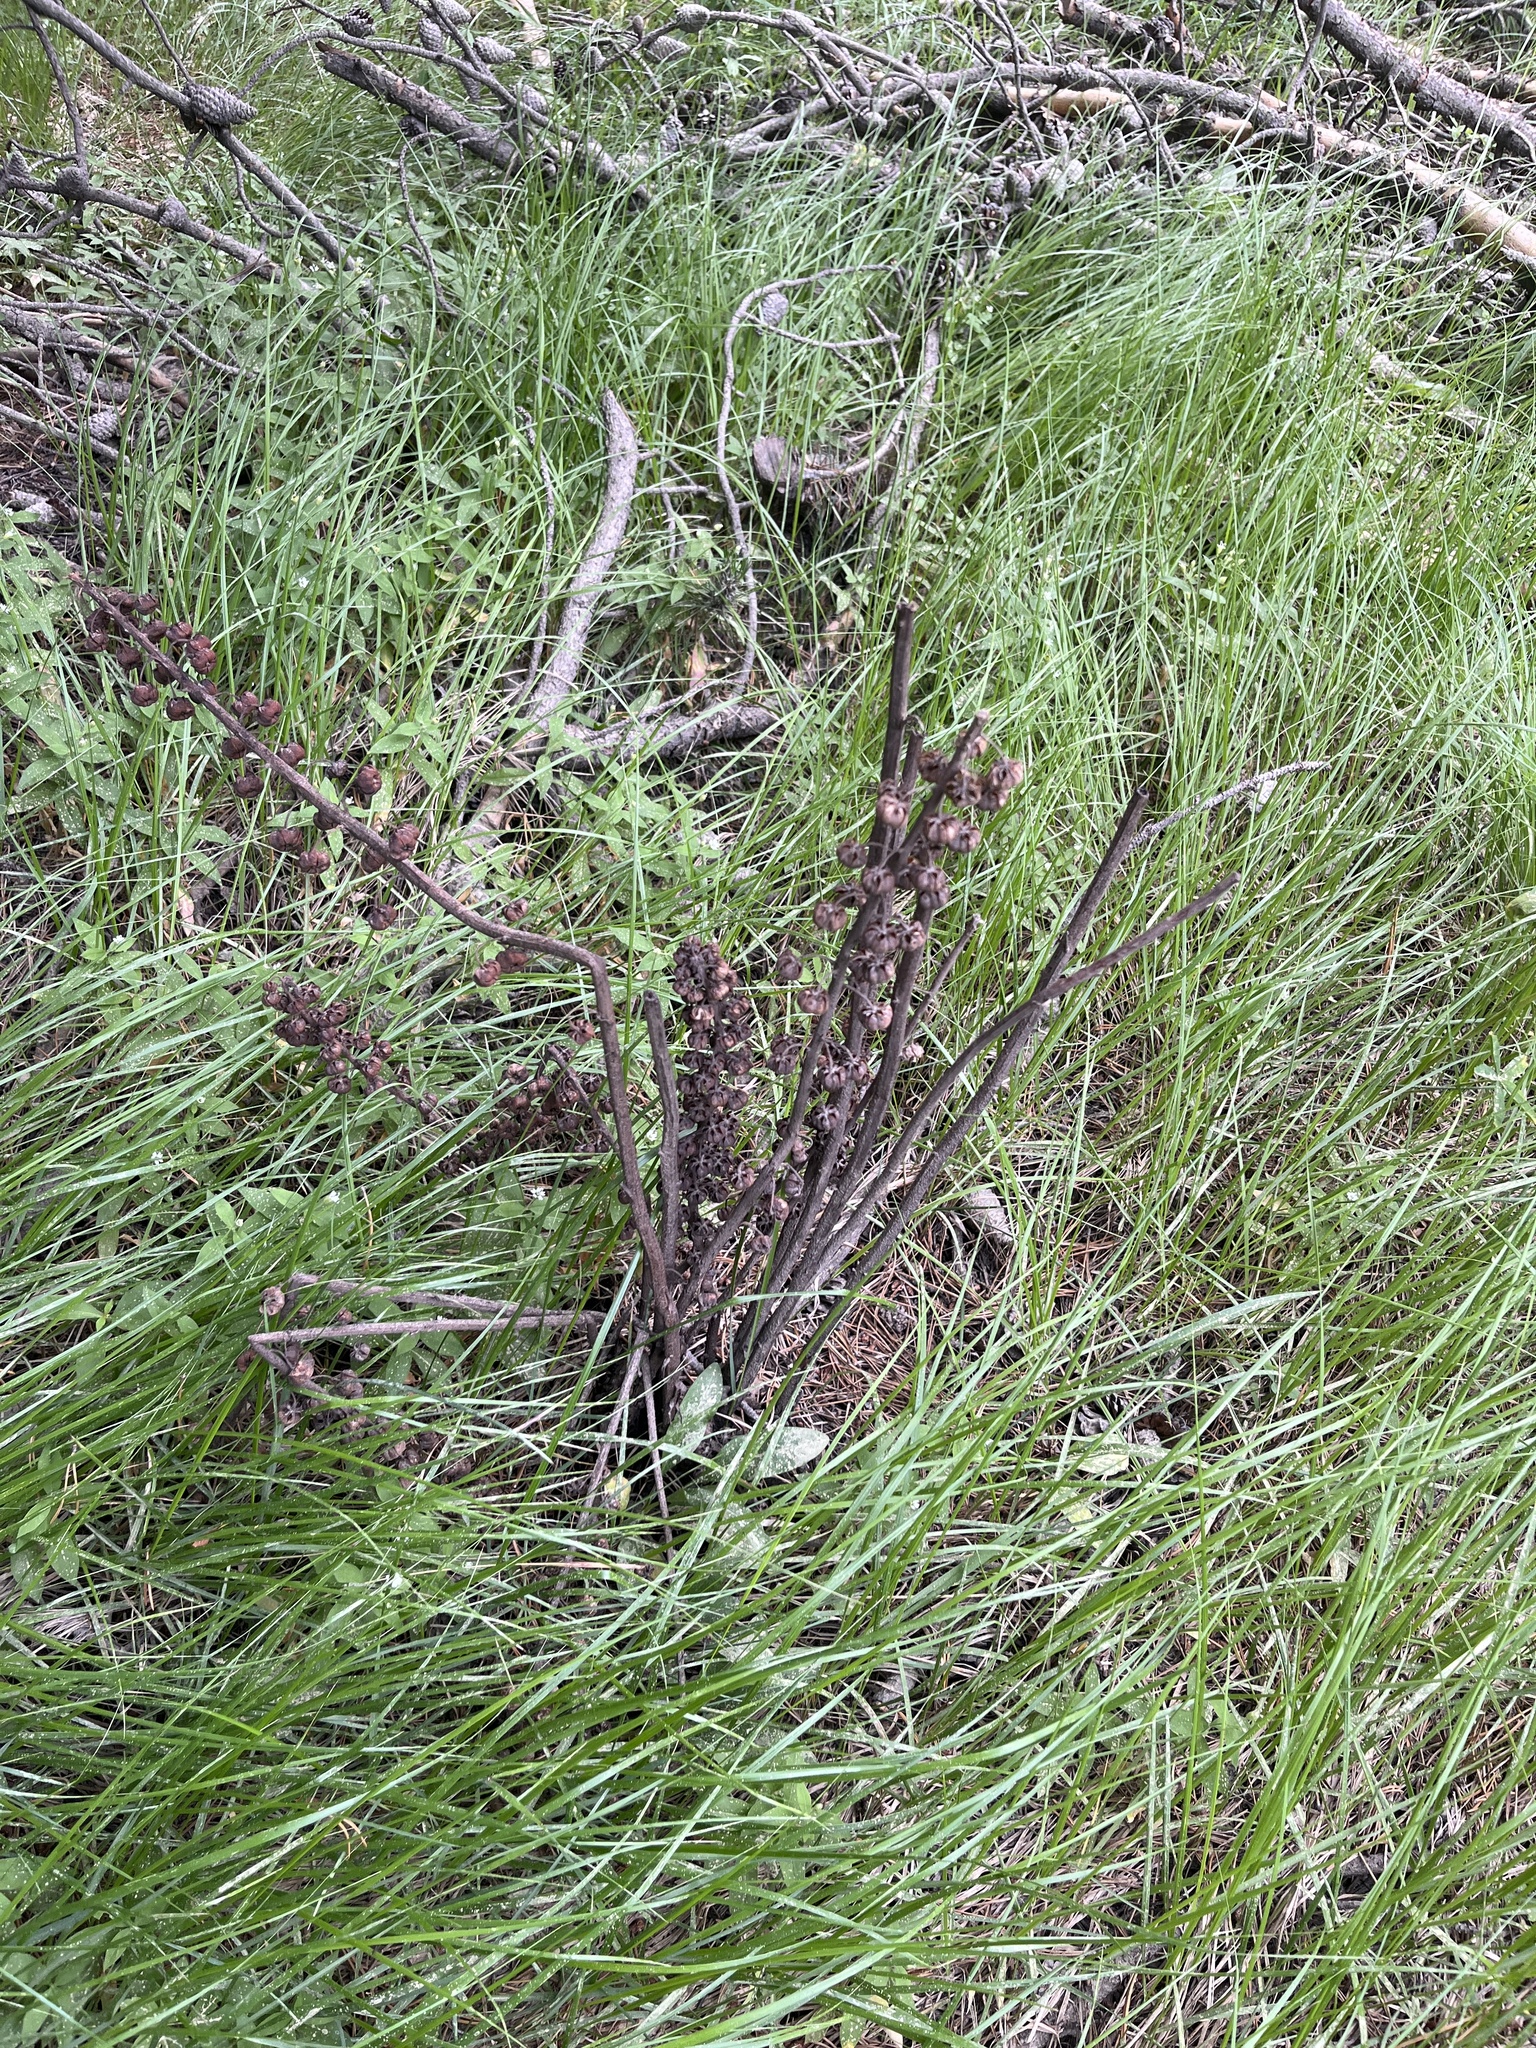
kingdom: Plantae
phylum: Tracheophyta
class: Magnoliopsida
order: Ericales
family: Ericaceae
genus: Pterospora
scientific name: Pterospora andromedea
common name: Giant bird's-nest
